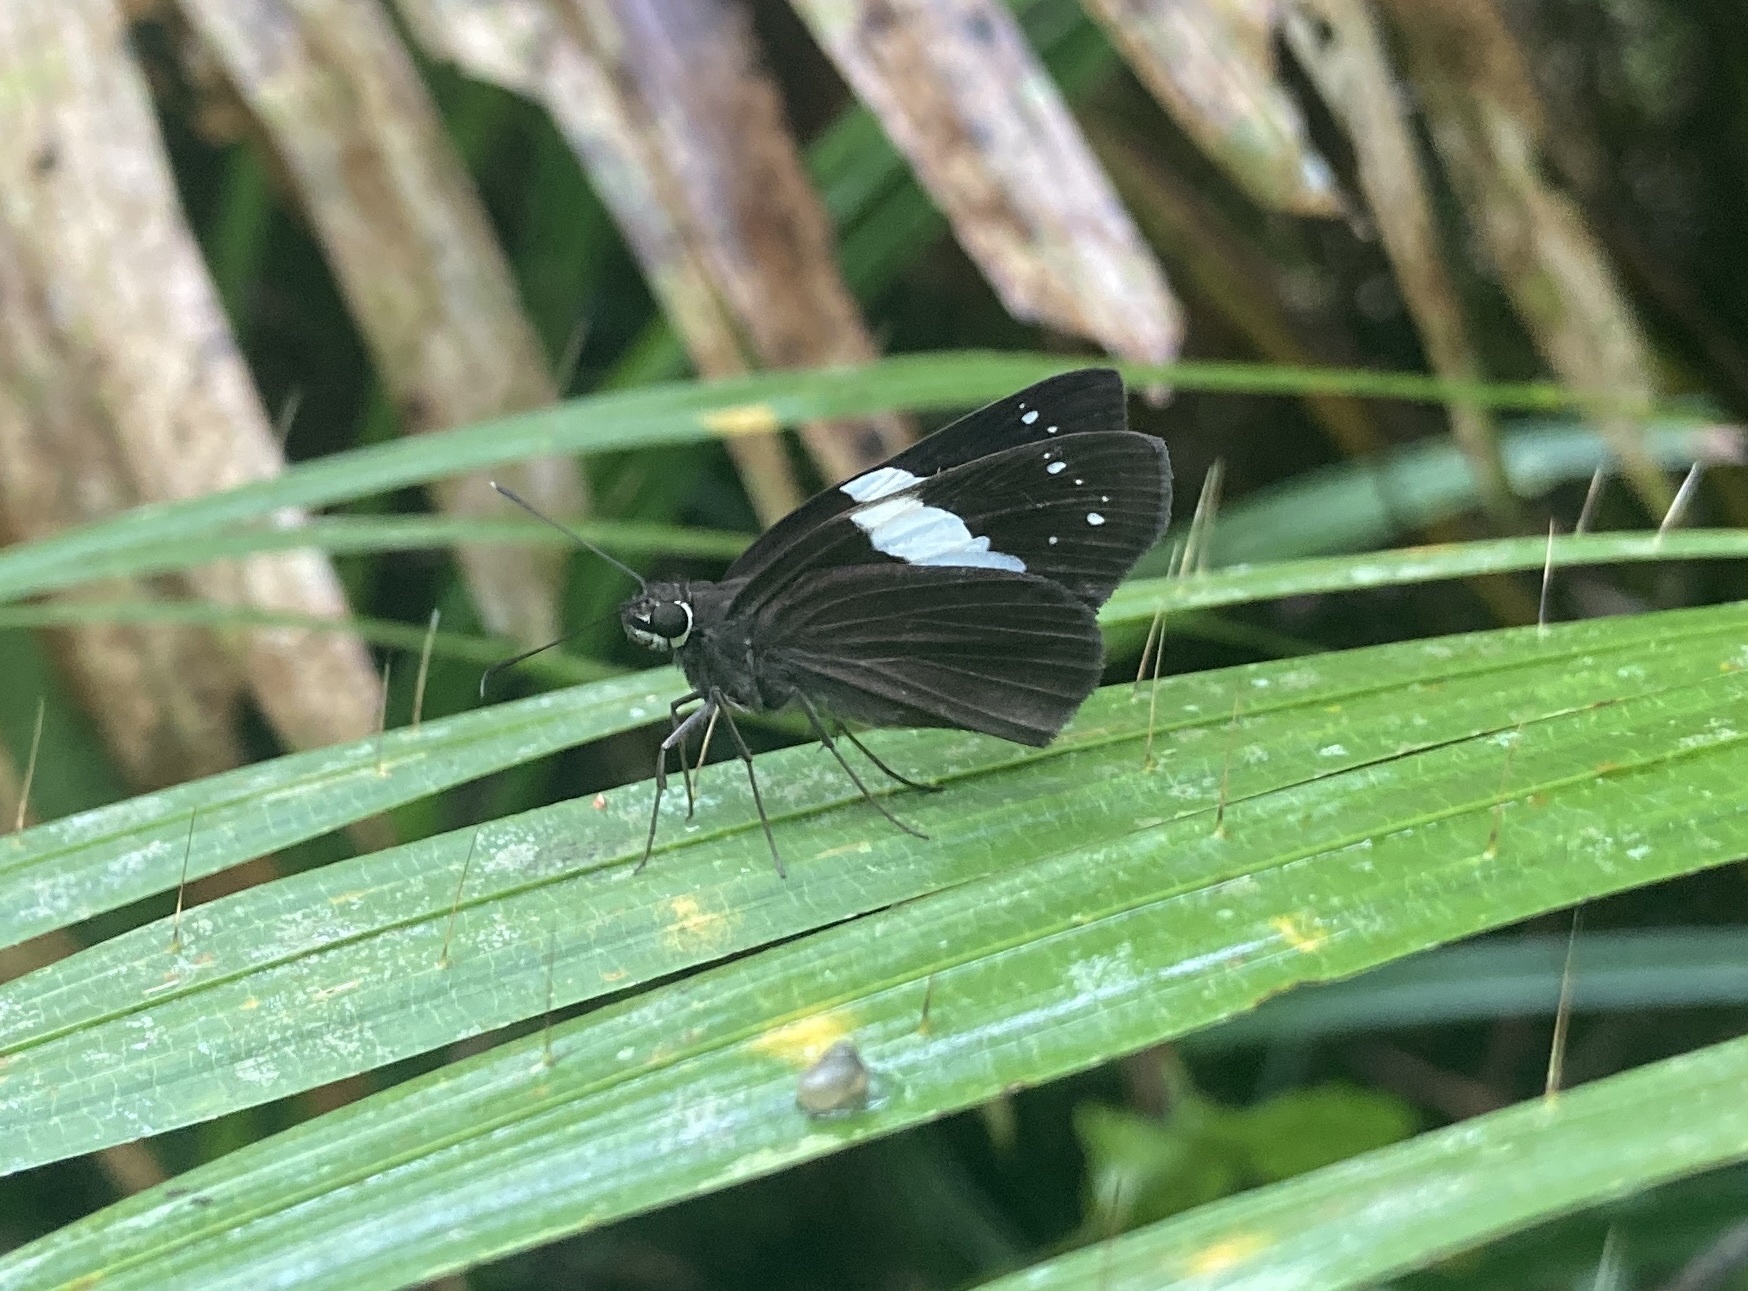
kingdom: Animalia
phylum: Arthropoda
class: Insecta
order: Lepidoptera
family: Hesperiidae
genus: Notocrypta
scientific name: Notocrypta waigensis
